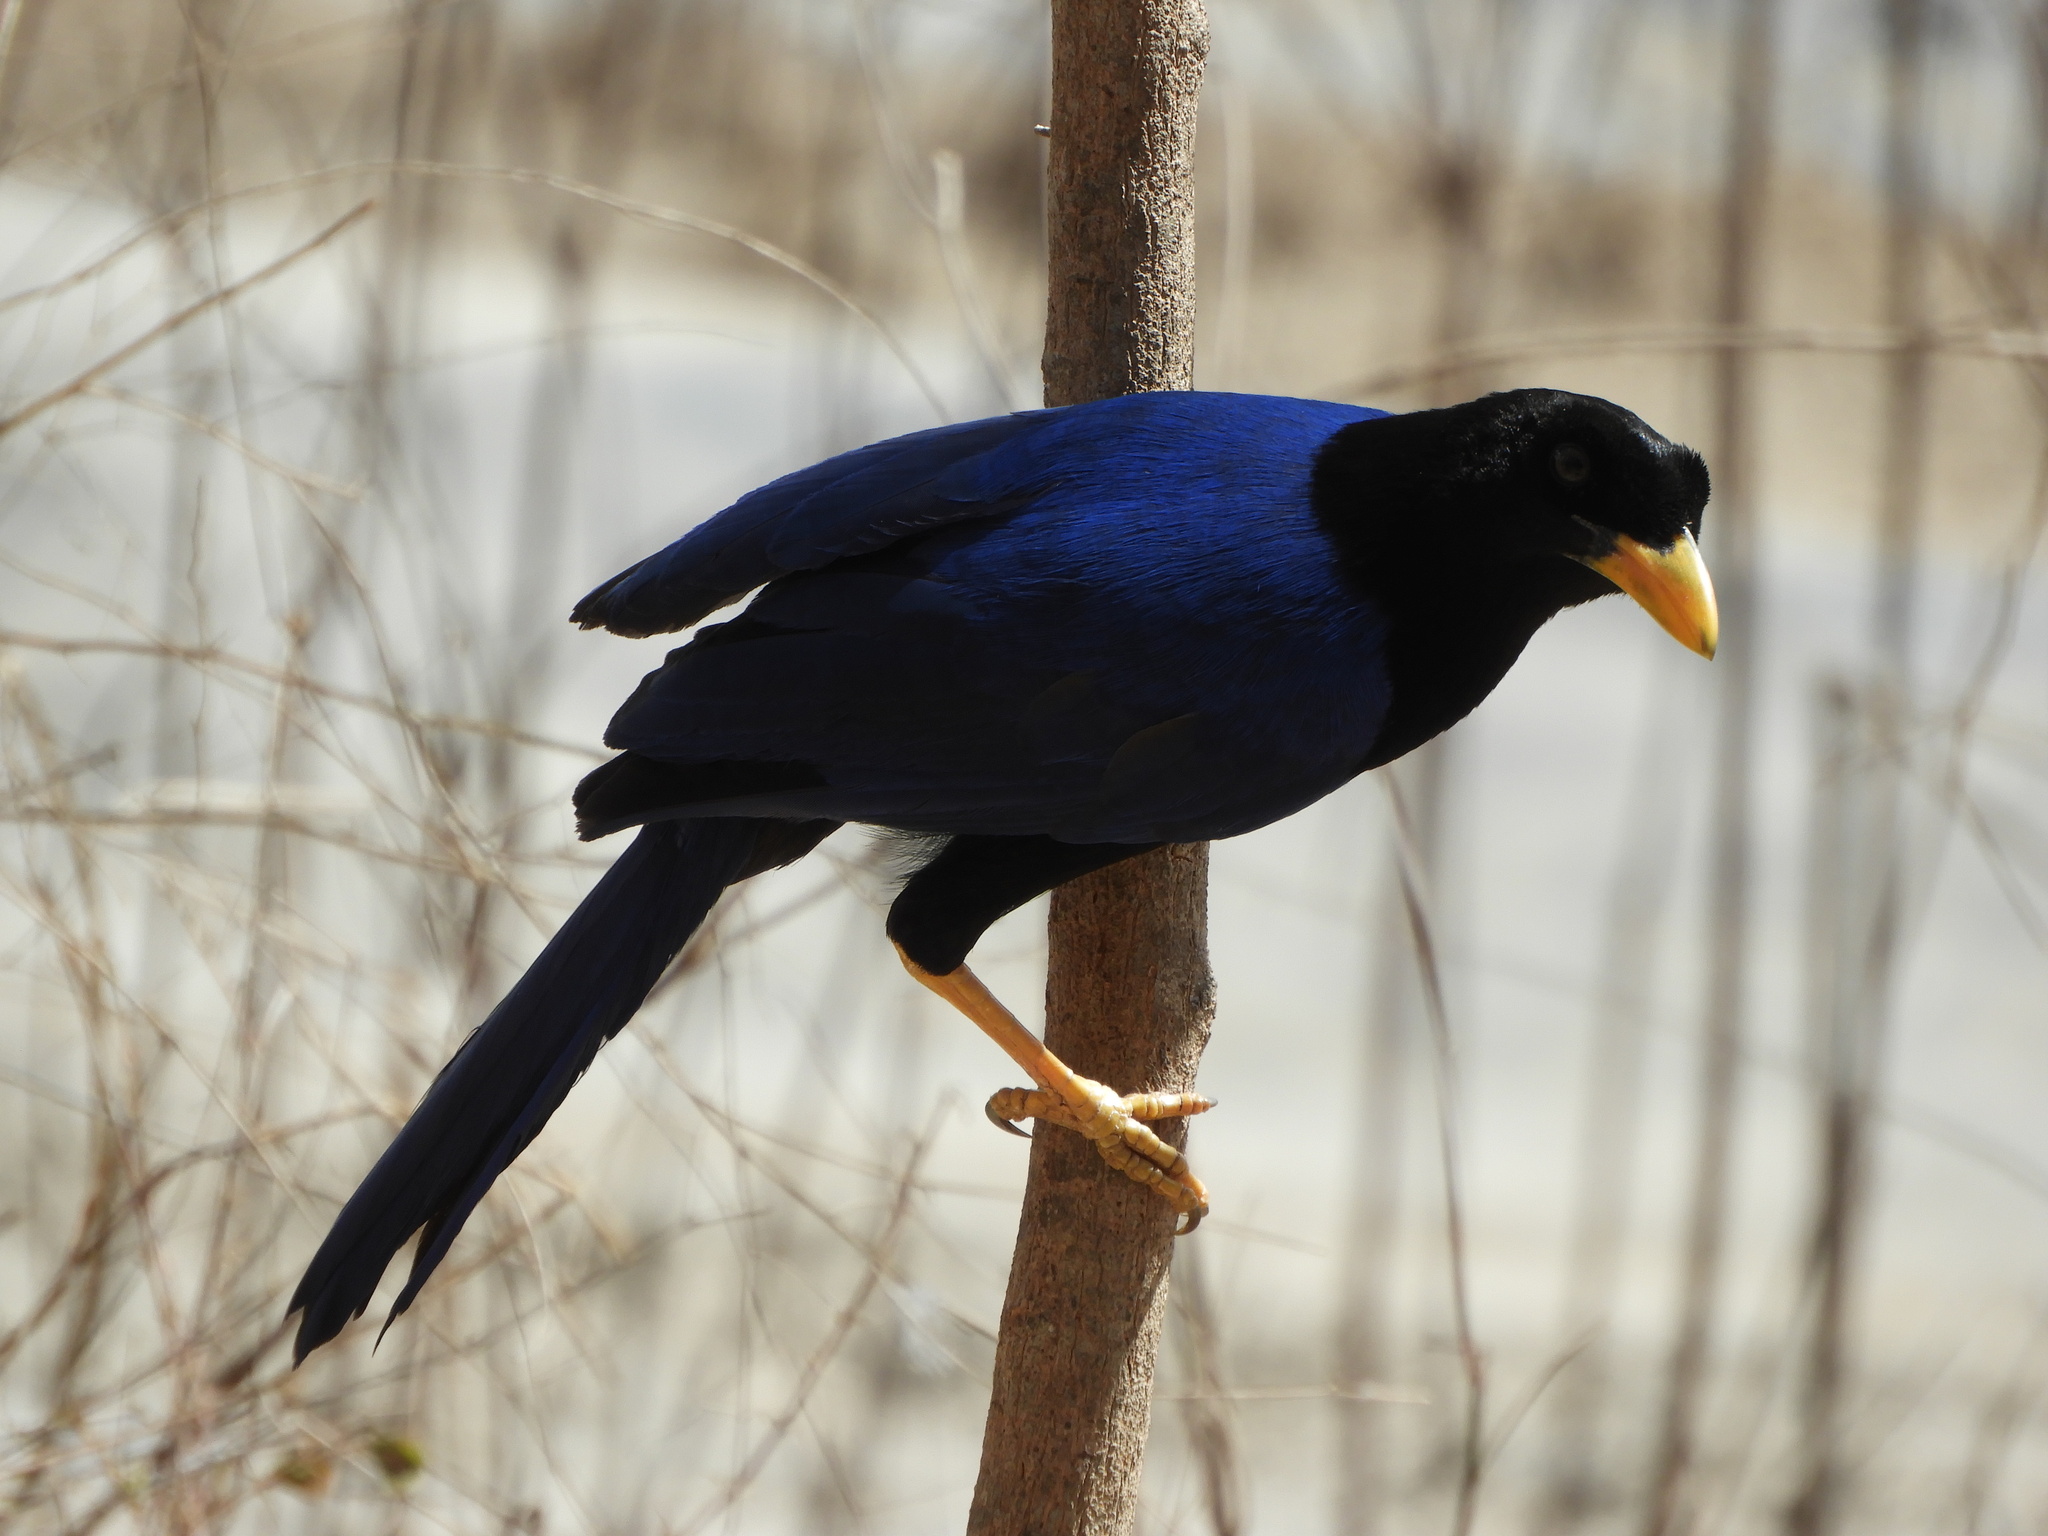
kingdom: Animalia
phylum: Chordata
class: Aves
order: Passeriformes
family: Corvidae
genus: Cyanocorax
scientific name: Cyanocorax beecheii
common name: Purplish-backed jay
